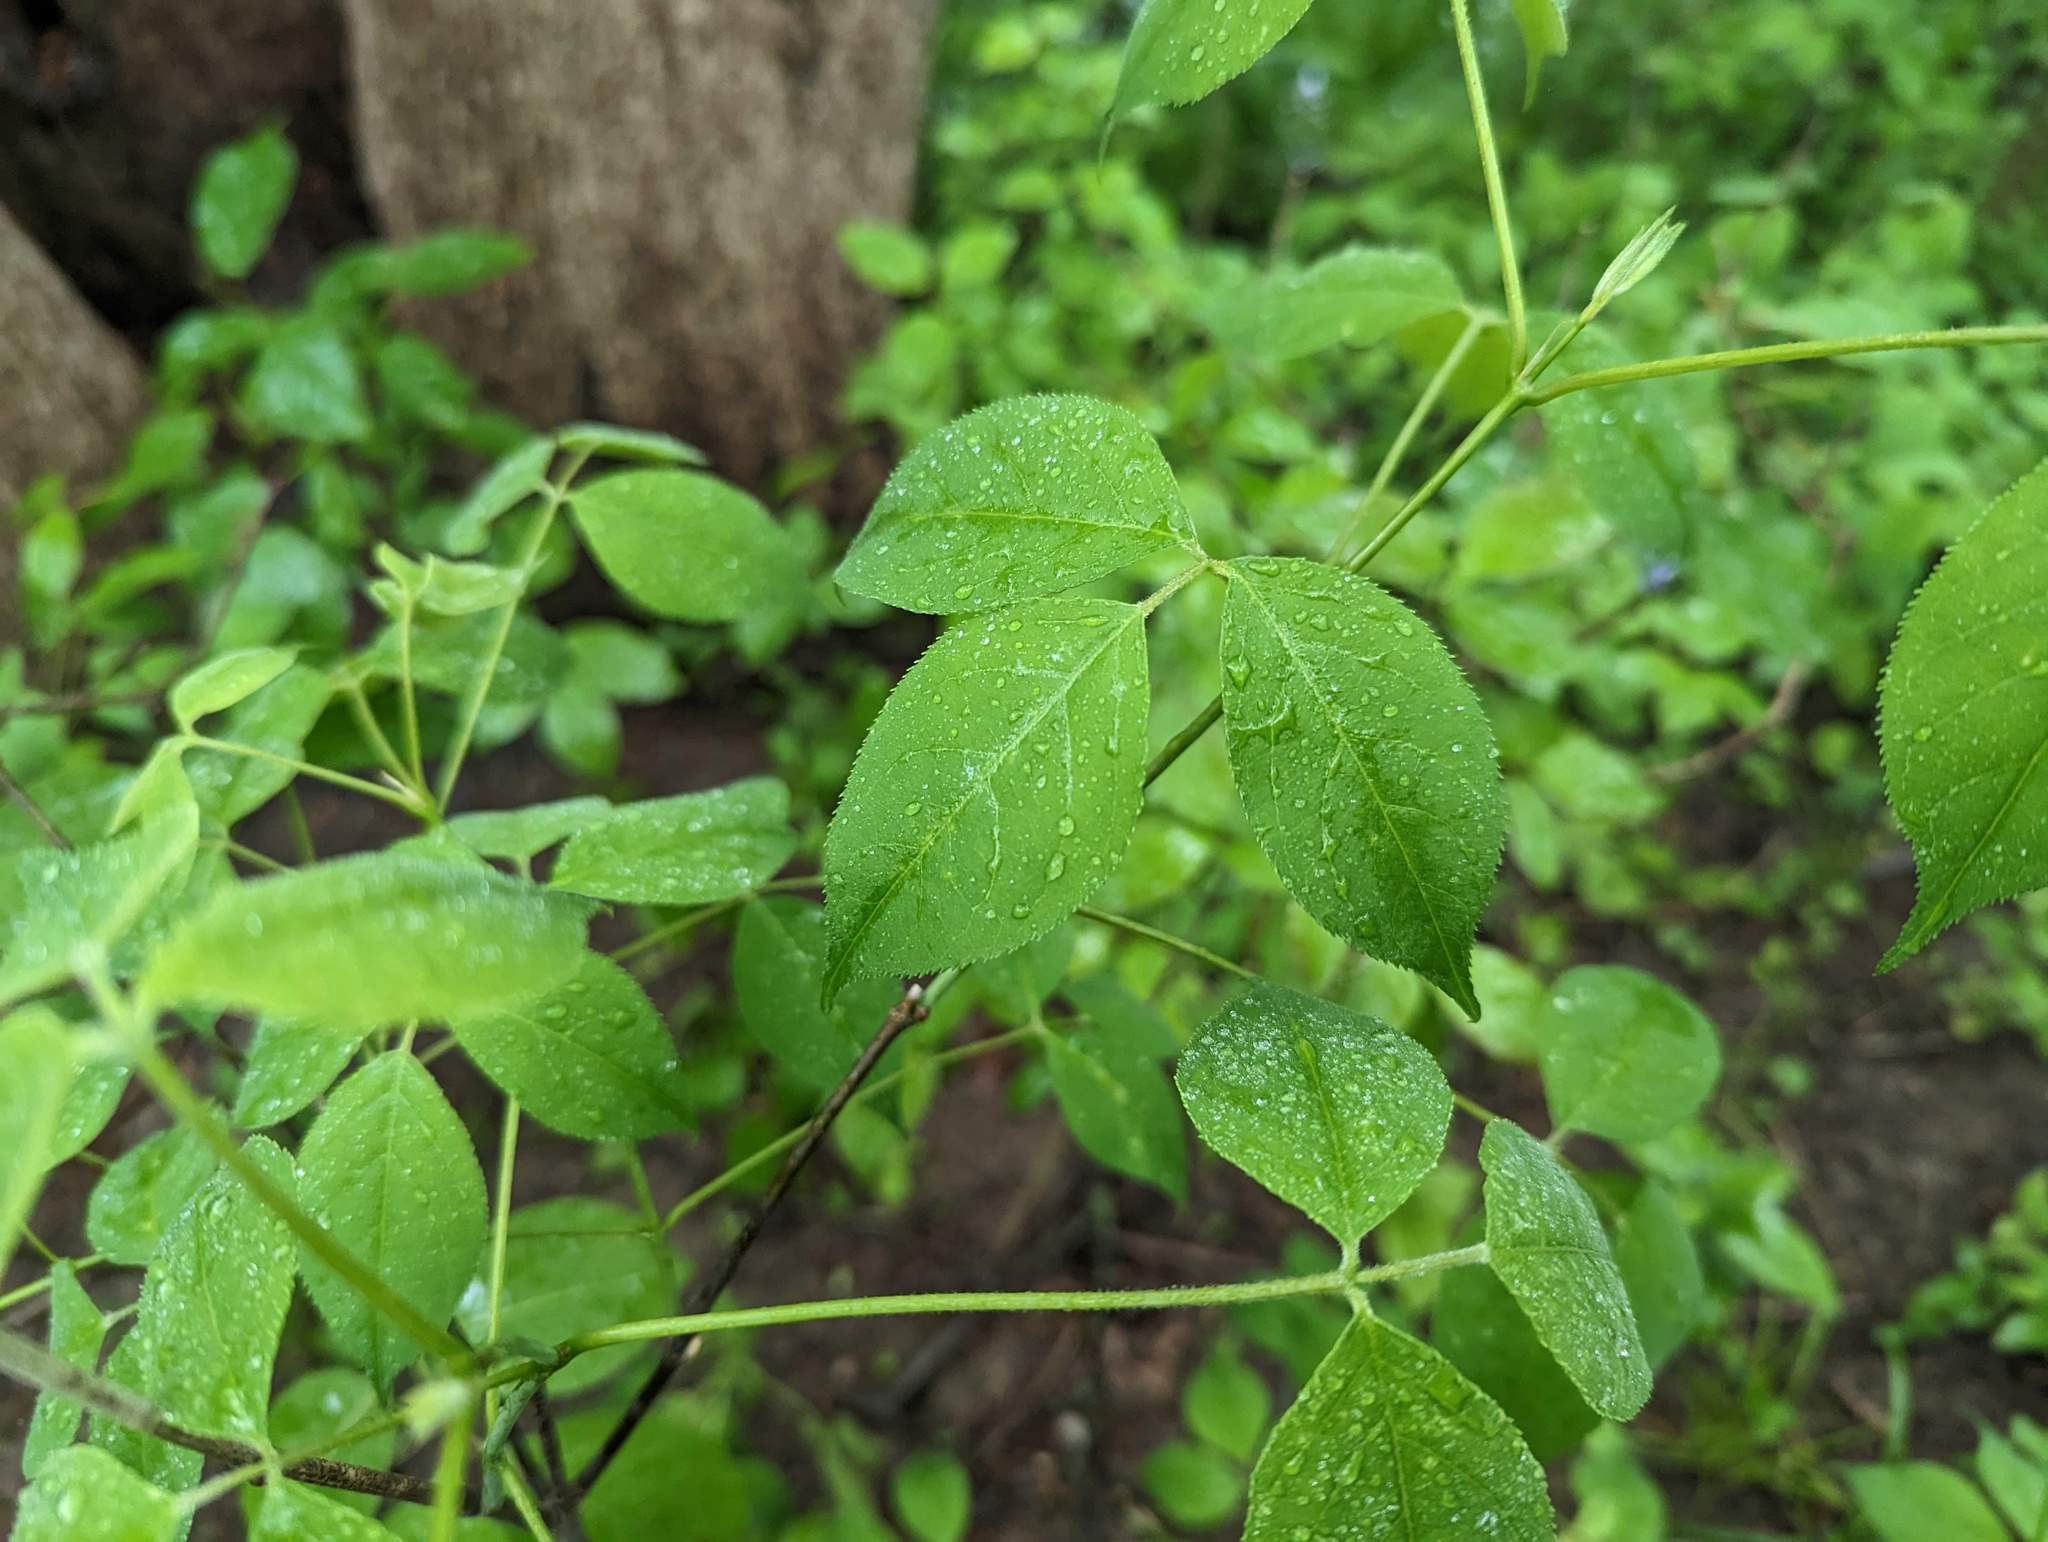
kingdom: Plantae
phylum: Tracheophyta
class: Magnoliopsida
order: Crossosomatales
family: Staphyleaceae
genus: Staphylea
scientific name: Staphylea trifolia
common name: American bladdernut
